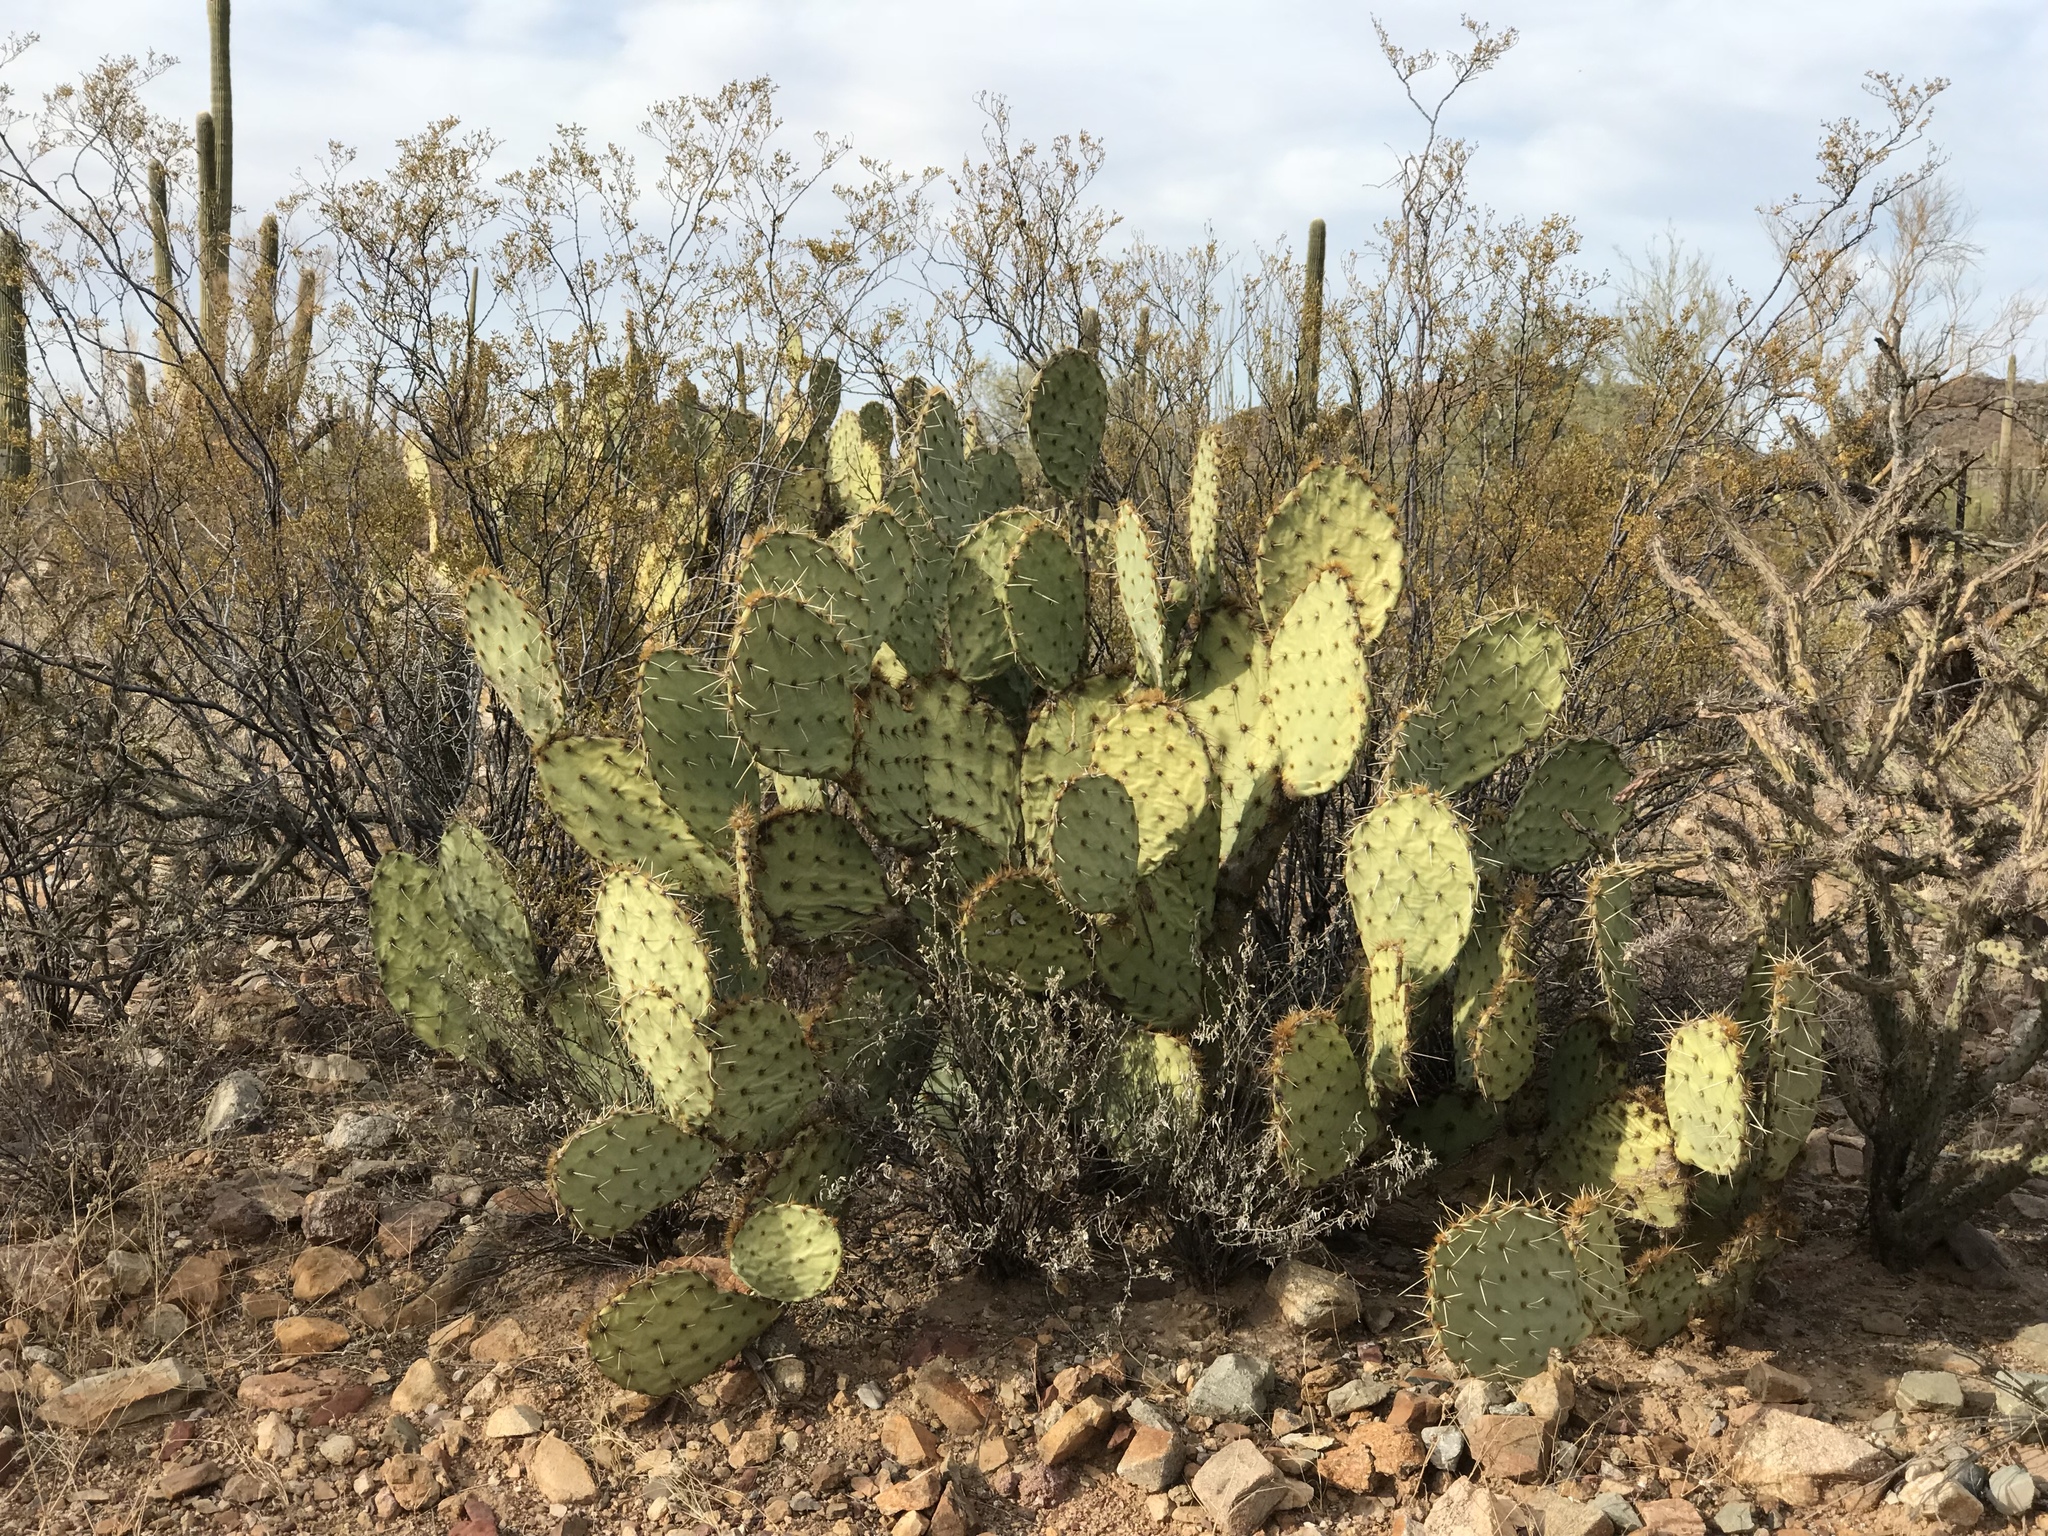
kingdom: Plantae
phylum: Tracheophyta
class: Magnoliopsida
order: Caryophyllales
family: Cactaceae
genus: Opuntia
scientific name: Opuntia engelmannii
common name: Cactus-apple
